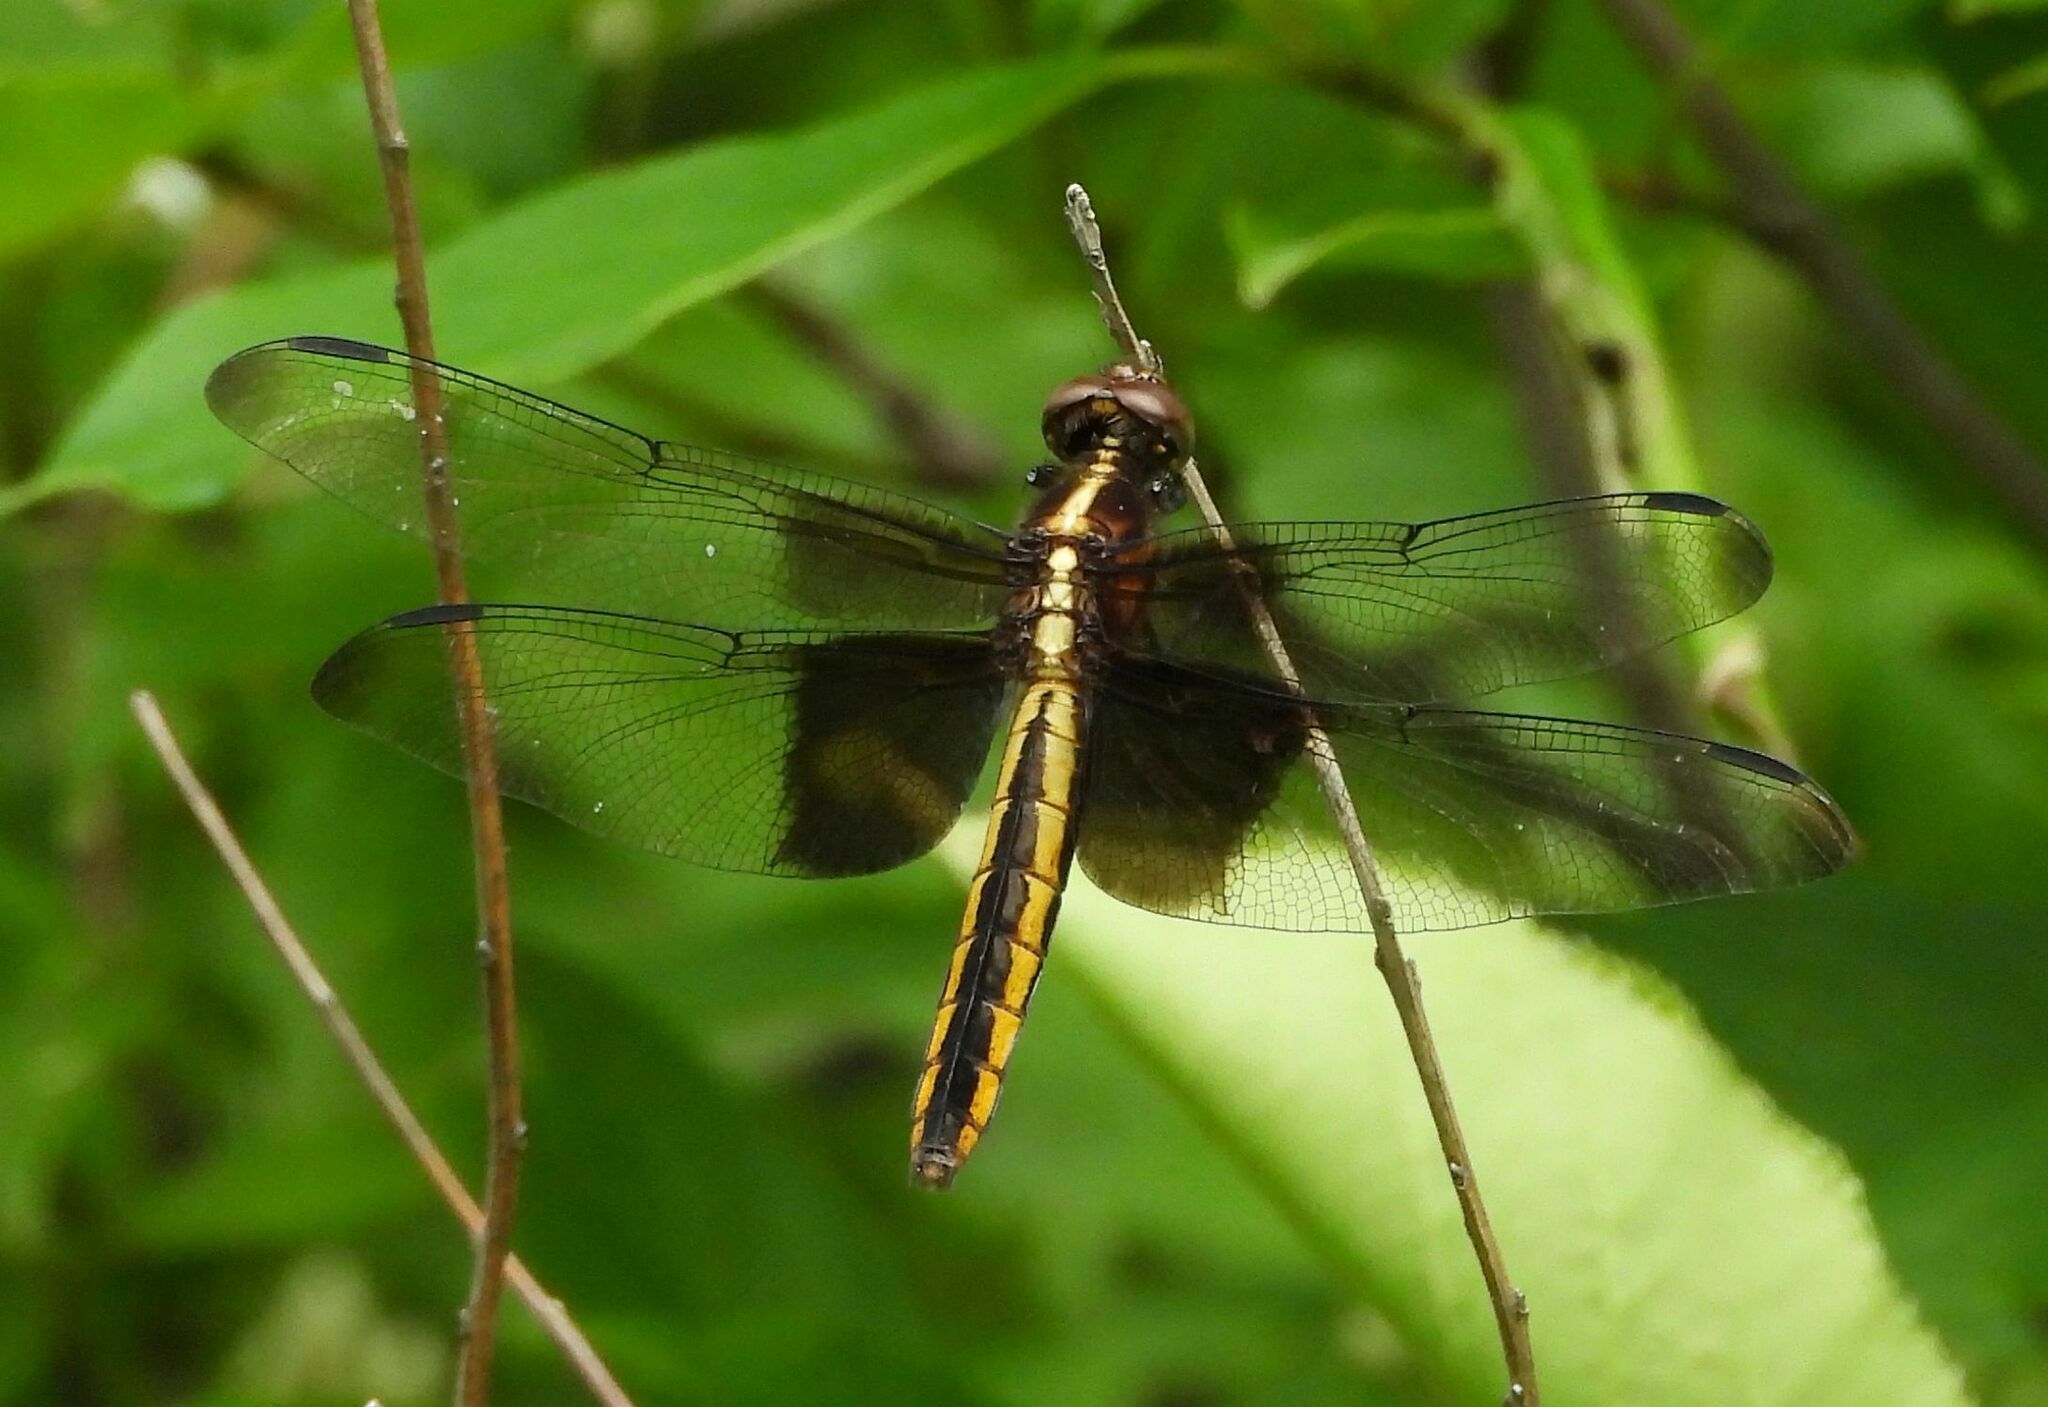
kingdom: Animalia
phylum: Arthropoda
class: Insecta
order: Odonata
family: Libellulidae
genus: Libellula
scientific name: Libellula luctuosa
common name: Widow skimmer
